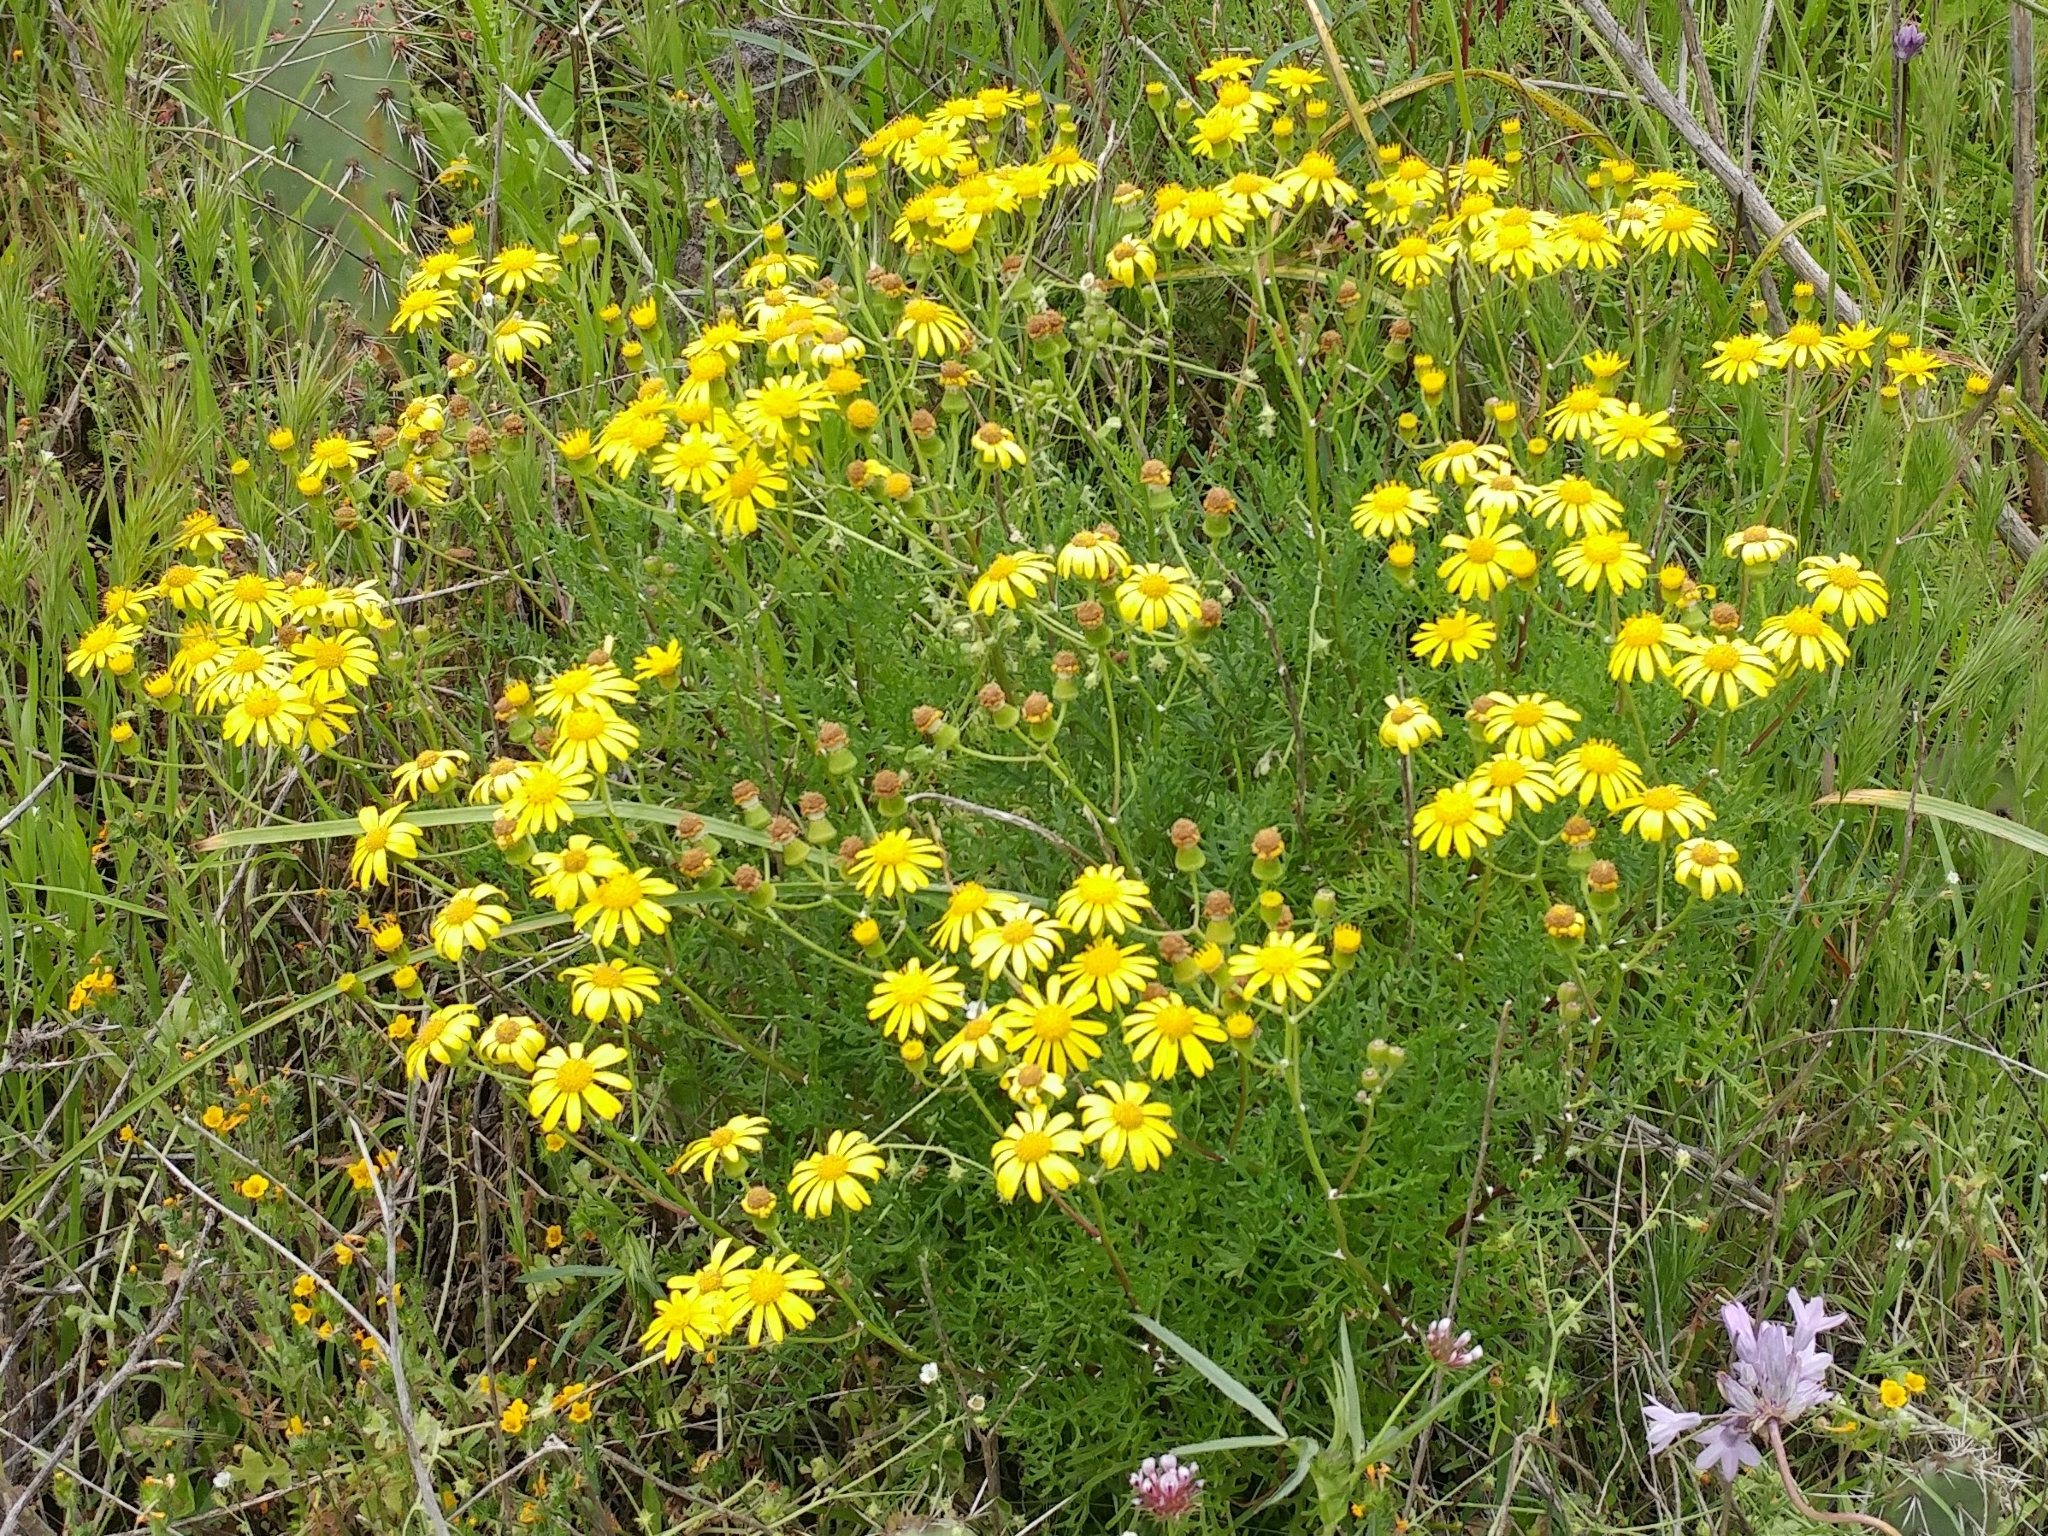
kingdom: Plantae
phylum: Tracheophyta
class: Magnoliopsida
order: Asterales
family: Asteraceae
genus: Senecio
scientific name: Senecio lyonii
